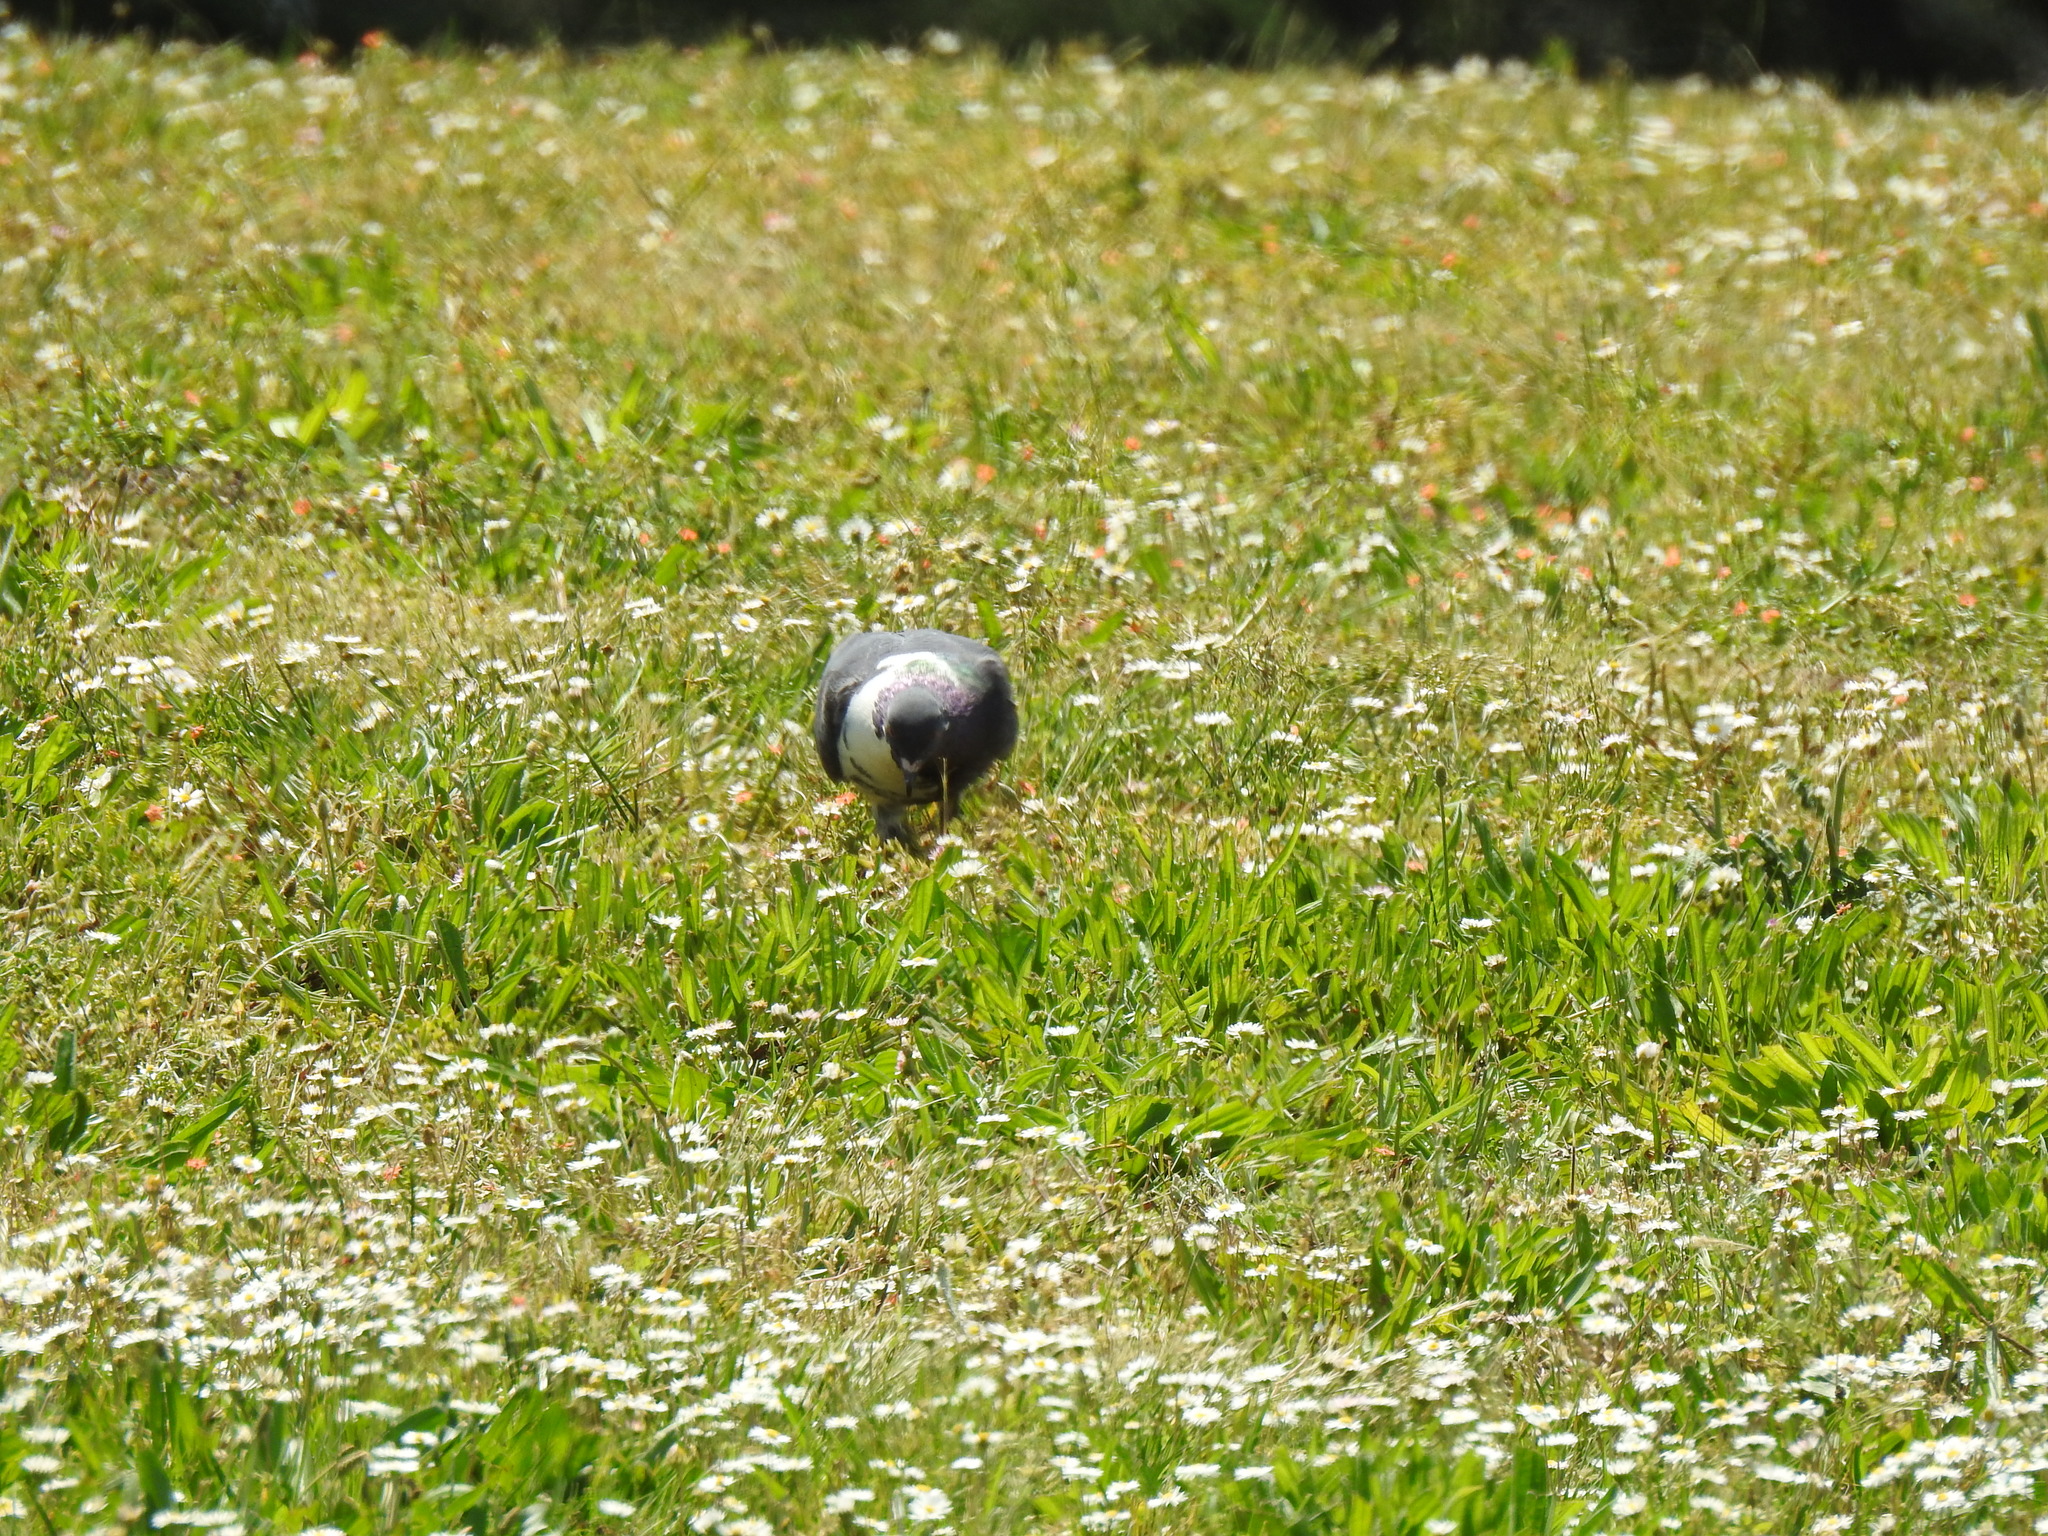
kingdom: Animalia
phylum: Chordata
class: Aves
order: Columbiformes
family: Columbidae
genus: Columba
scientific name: Columba livia
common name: Rock pigeon
